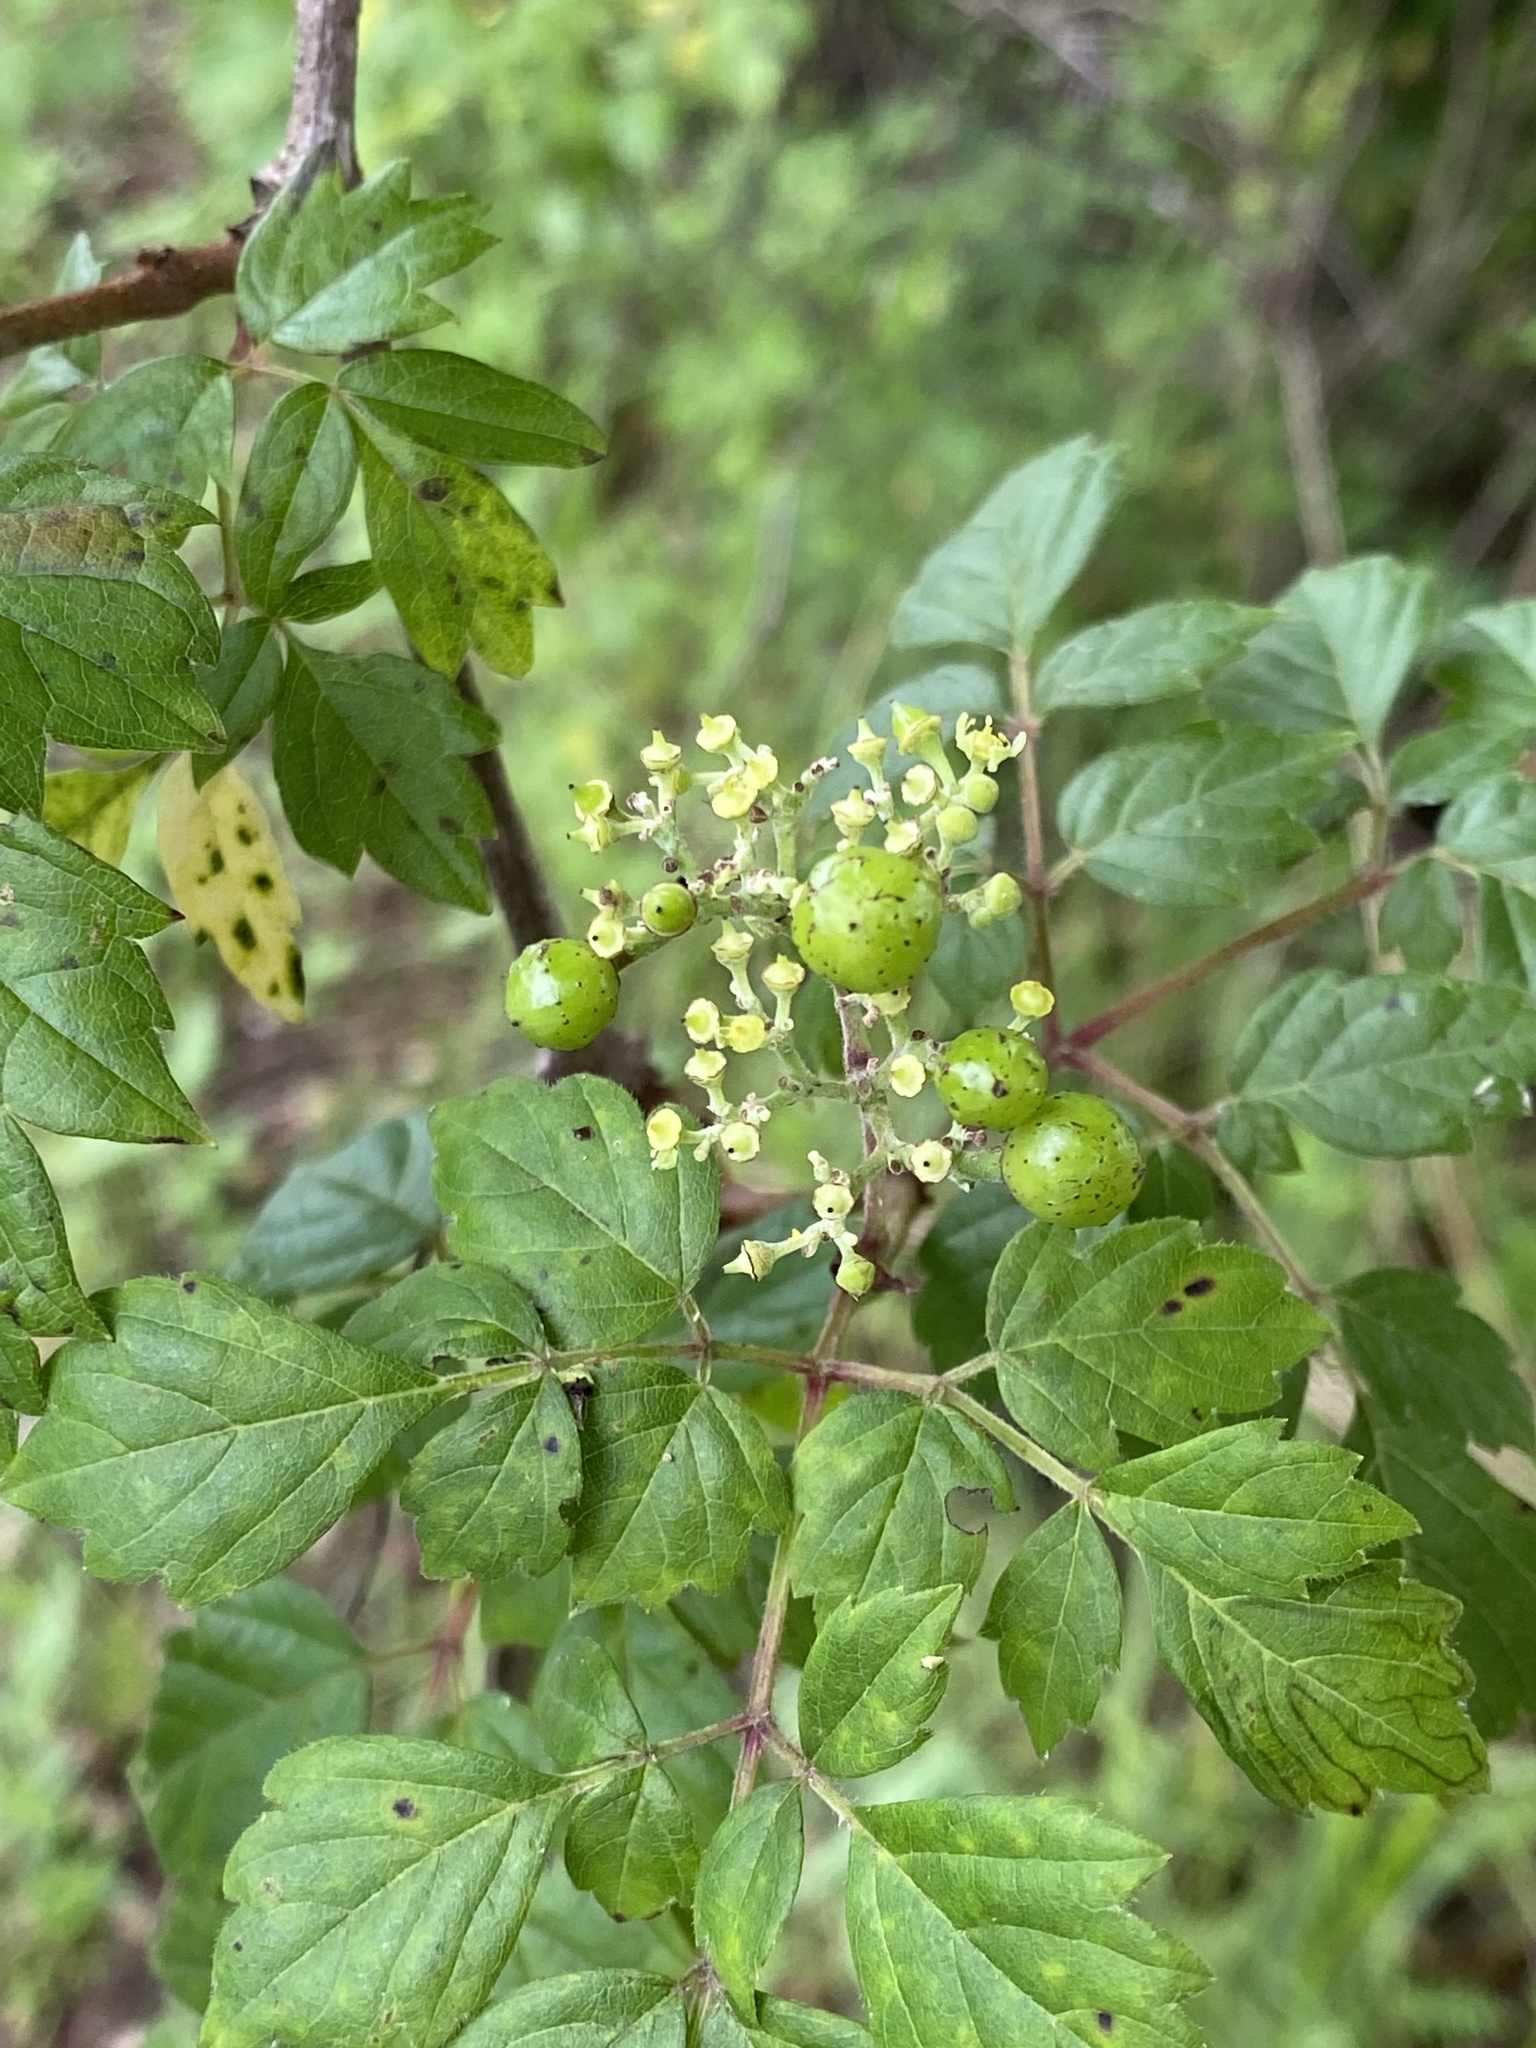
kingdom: Plantae
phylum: Tracheophyta
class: Magnoliopsida
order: Vitales
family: Vitaceae
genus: Nekemias
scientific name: Nekemias arborea
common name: Peppervine
